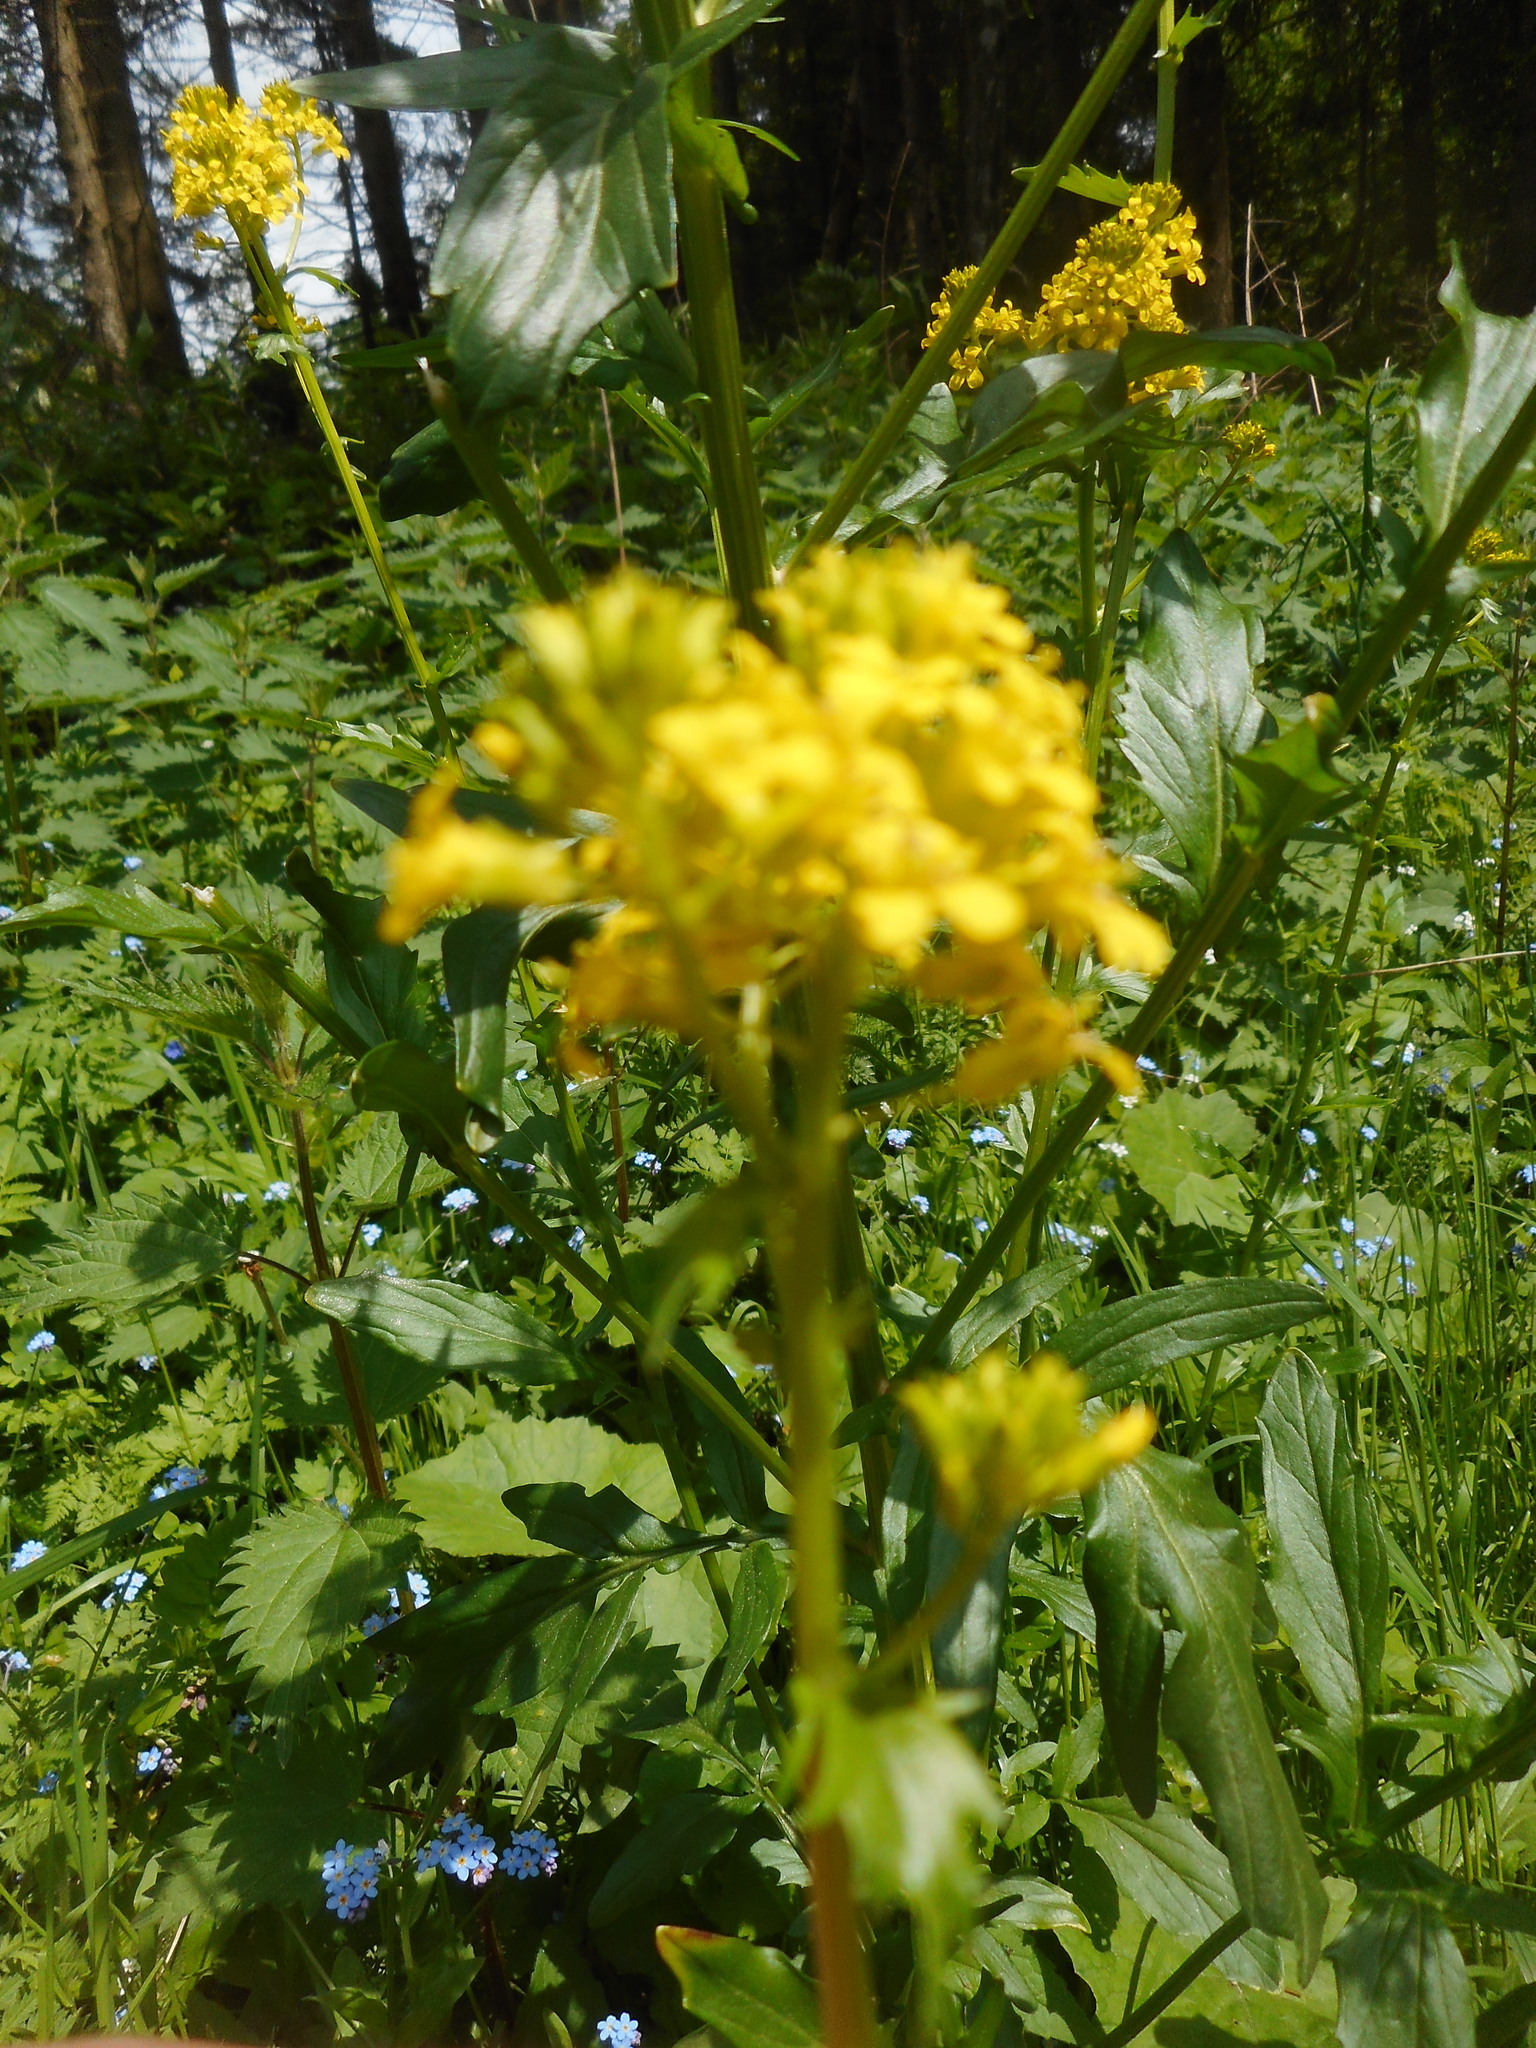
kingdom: Plantae
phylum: Tracheophyta
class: Magnoliopsida
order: Brassicales
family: Brassicaceae
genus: Barbarea
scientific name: Barbarea vulgaris
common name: Cressy-greens
